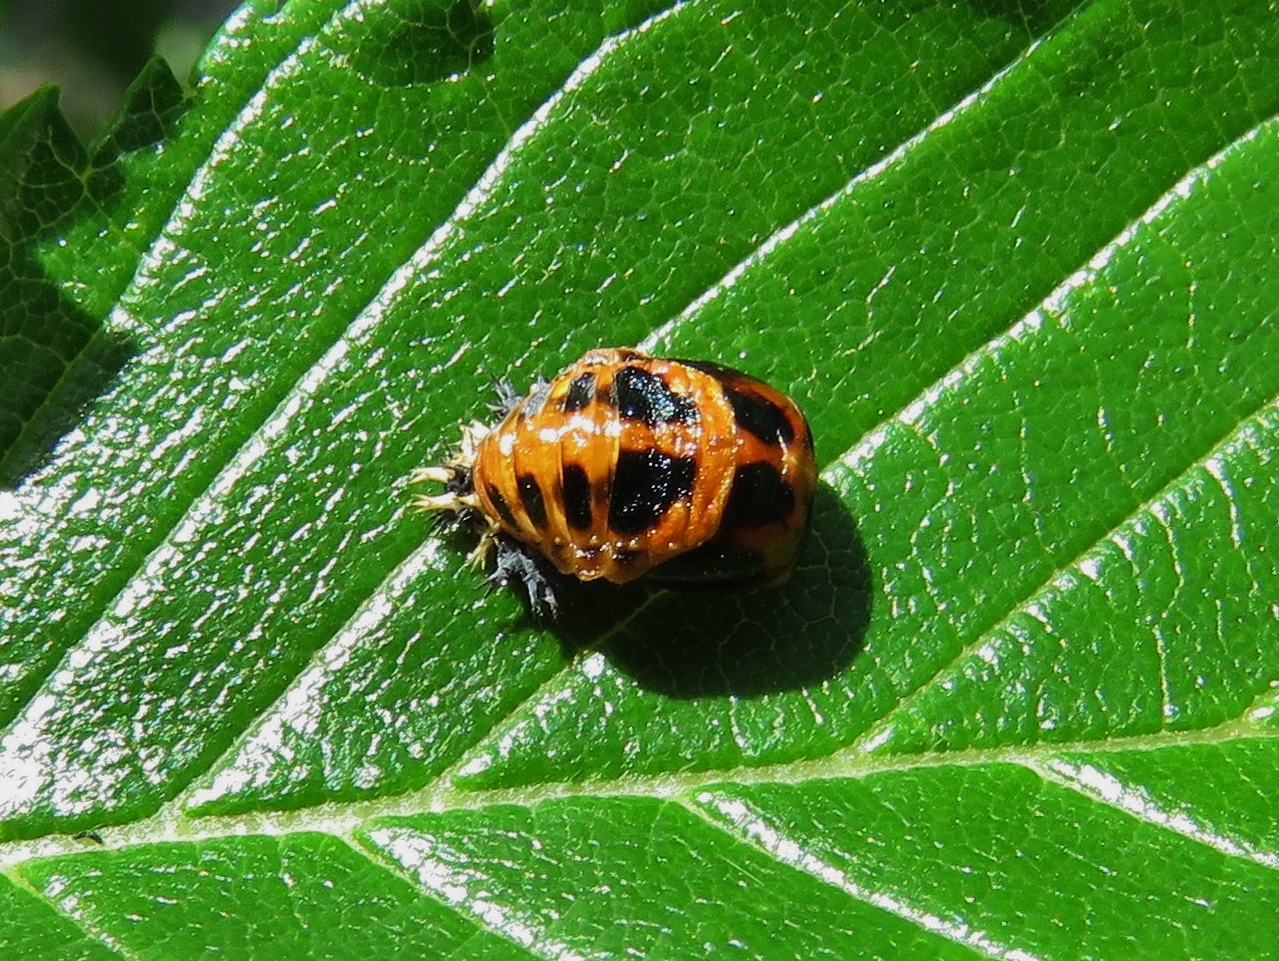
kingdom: Animalia
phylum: Arthropoda
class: Insecta
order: Coleoptera
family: Coccinellidae
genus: Harmonia
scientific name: Harmonia axyridis
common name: Harlequin ladybird
